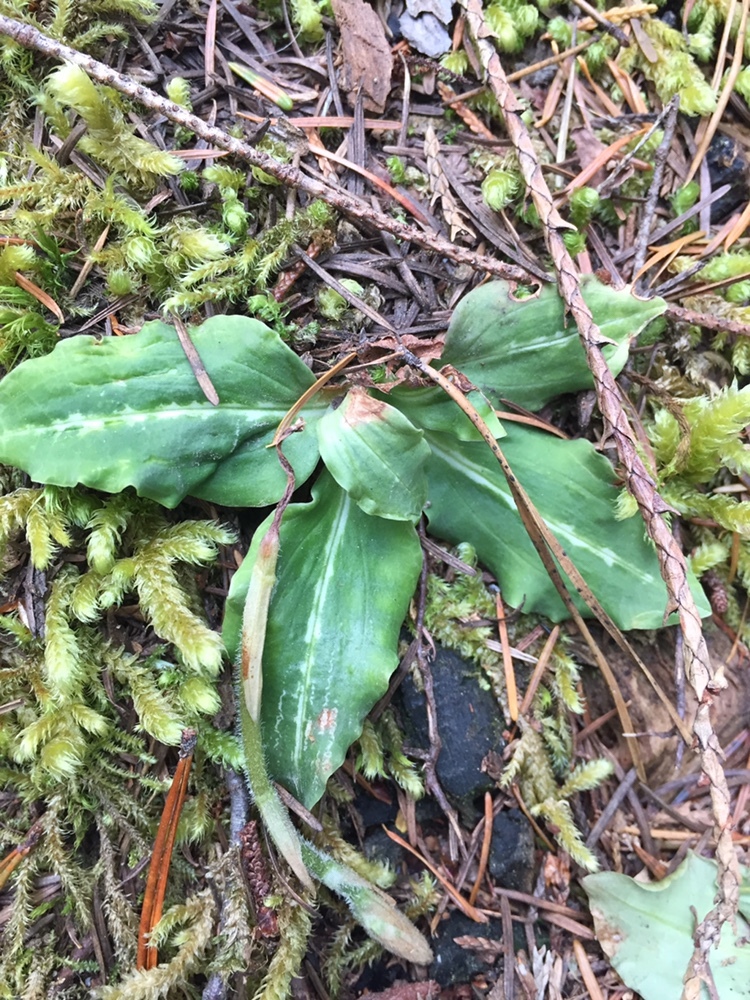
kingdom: Plantae
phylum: Tracheophyta
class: Liliopsida
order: Asparagales
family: Orchidaceae
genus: Goodyera
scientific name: Goodyera oblongifolia
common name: Giant rattlesnake-plantain
